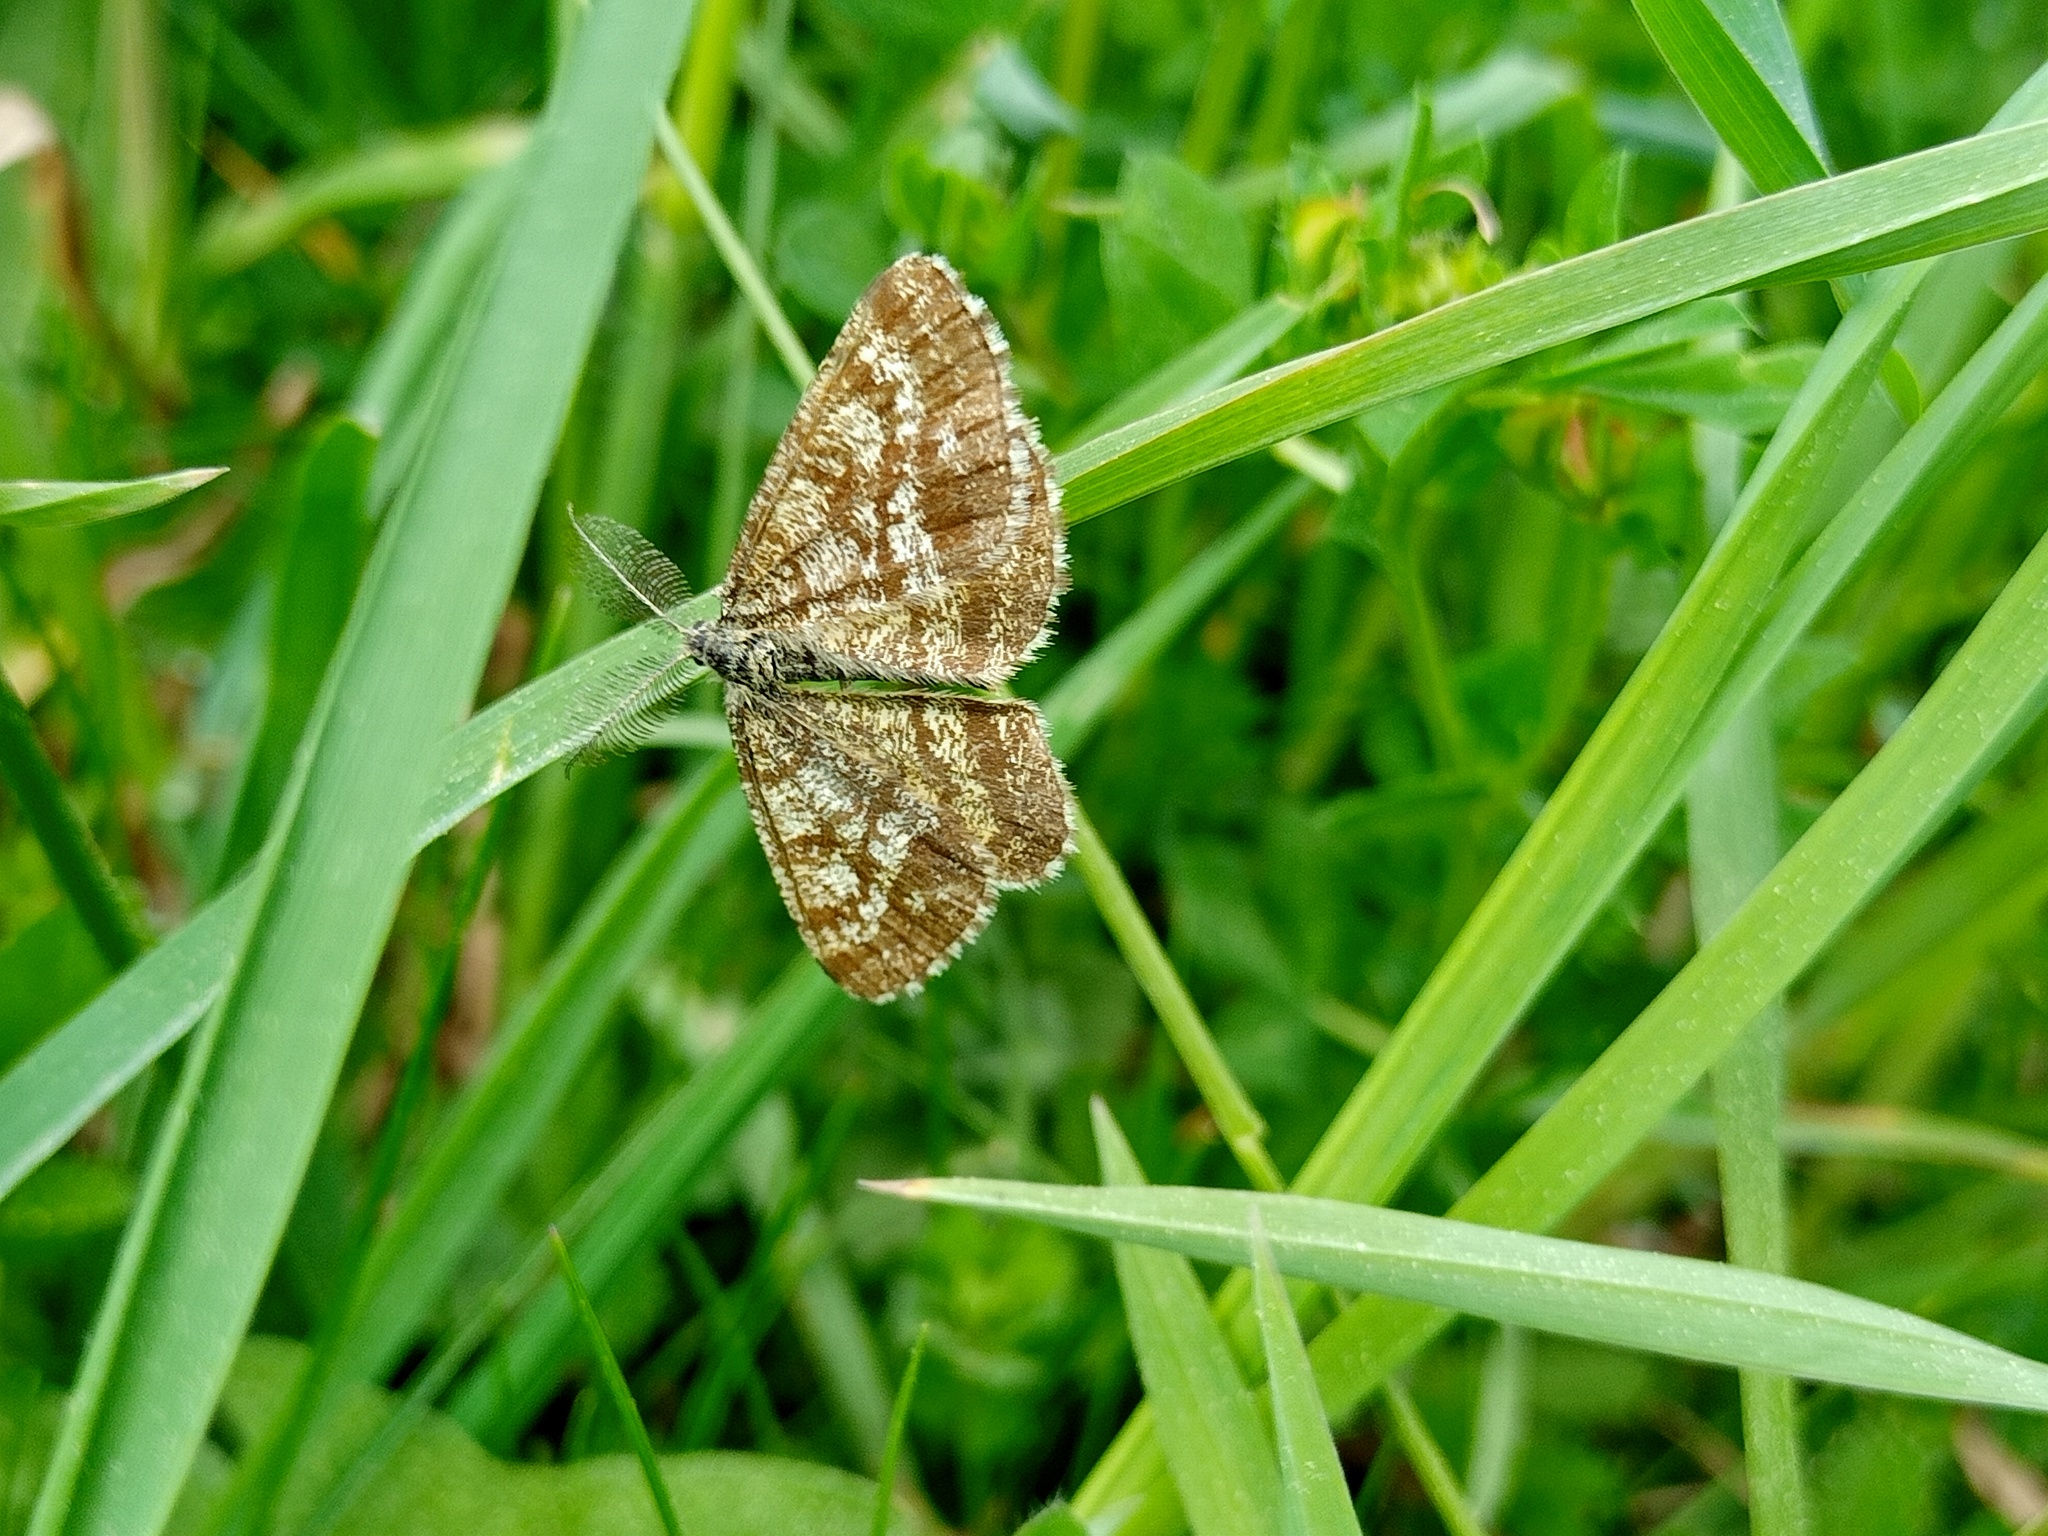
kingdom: Animalia
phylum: Arthropoda
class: Insecta
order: Lepidoptera
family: Geometridae
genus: Ematurga
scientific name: Ematurga atomaria
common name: Common heath
